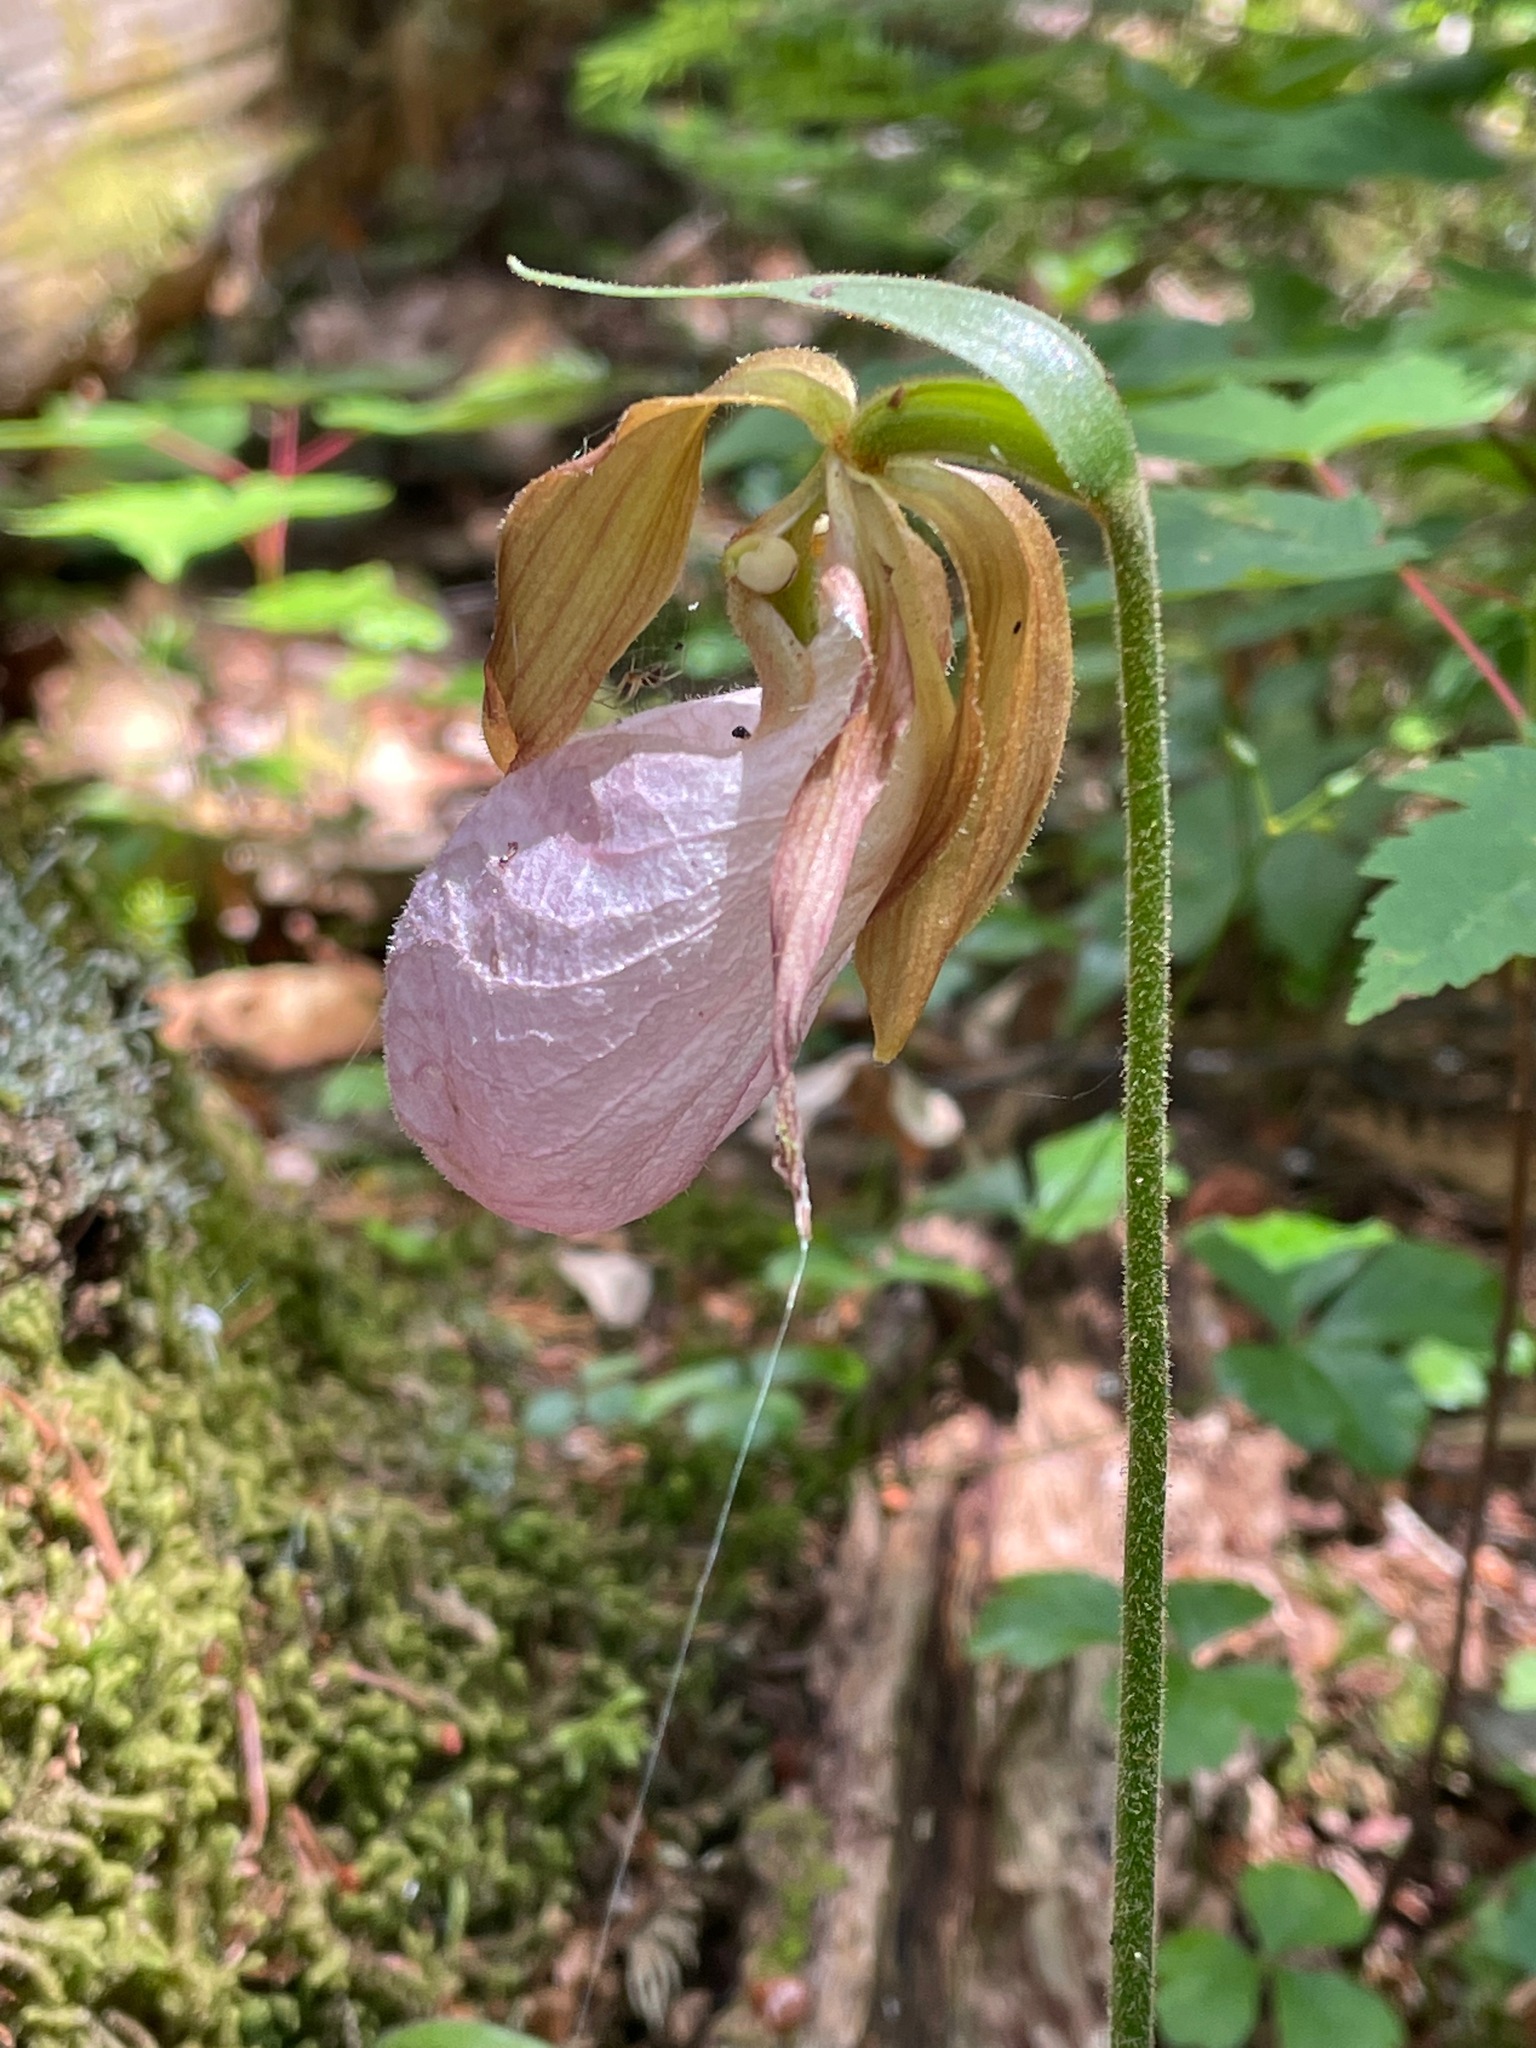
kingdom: Plantae
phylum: Tracheophyta
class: Liliopsida
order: Asparagales
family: Orchidaceae
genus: Cypripedium
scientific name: Cypripedium acaule
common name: Pink lady's-slipper
